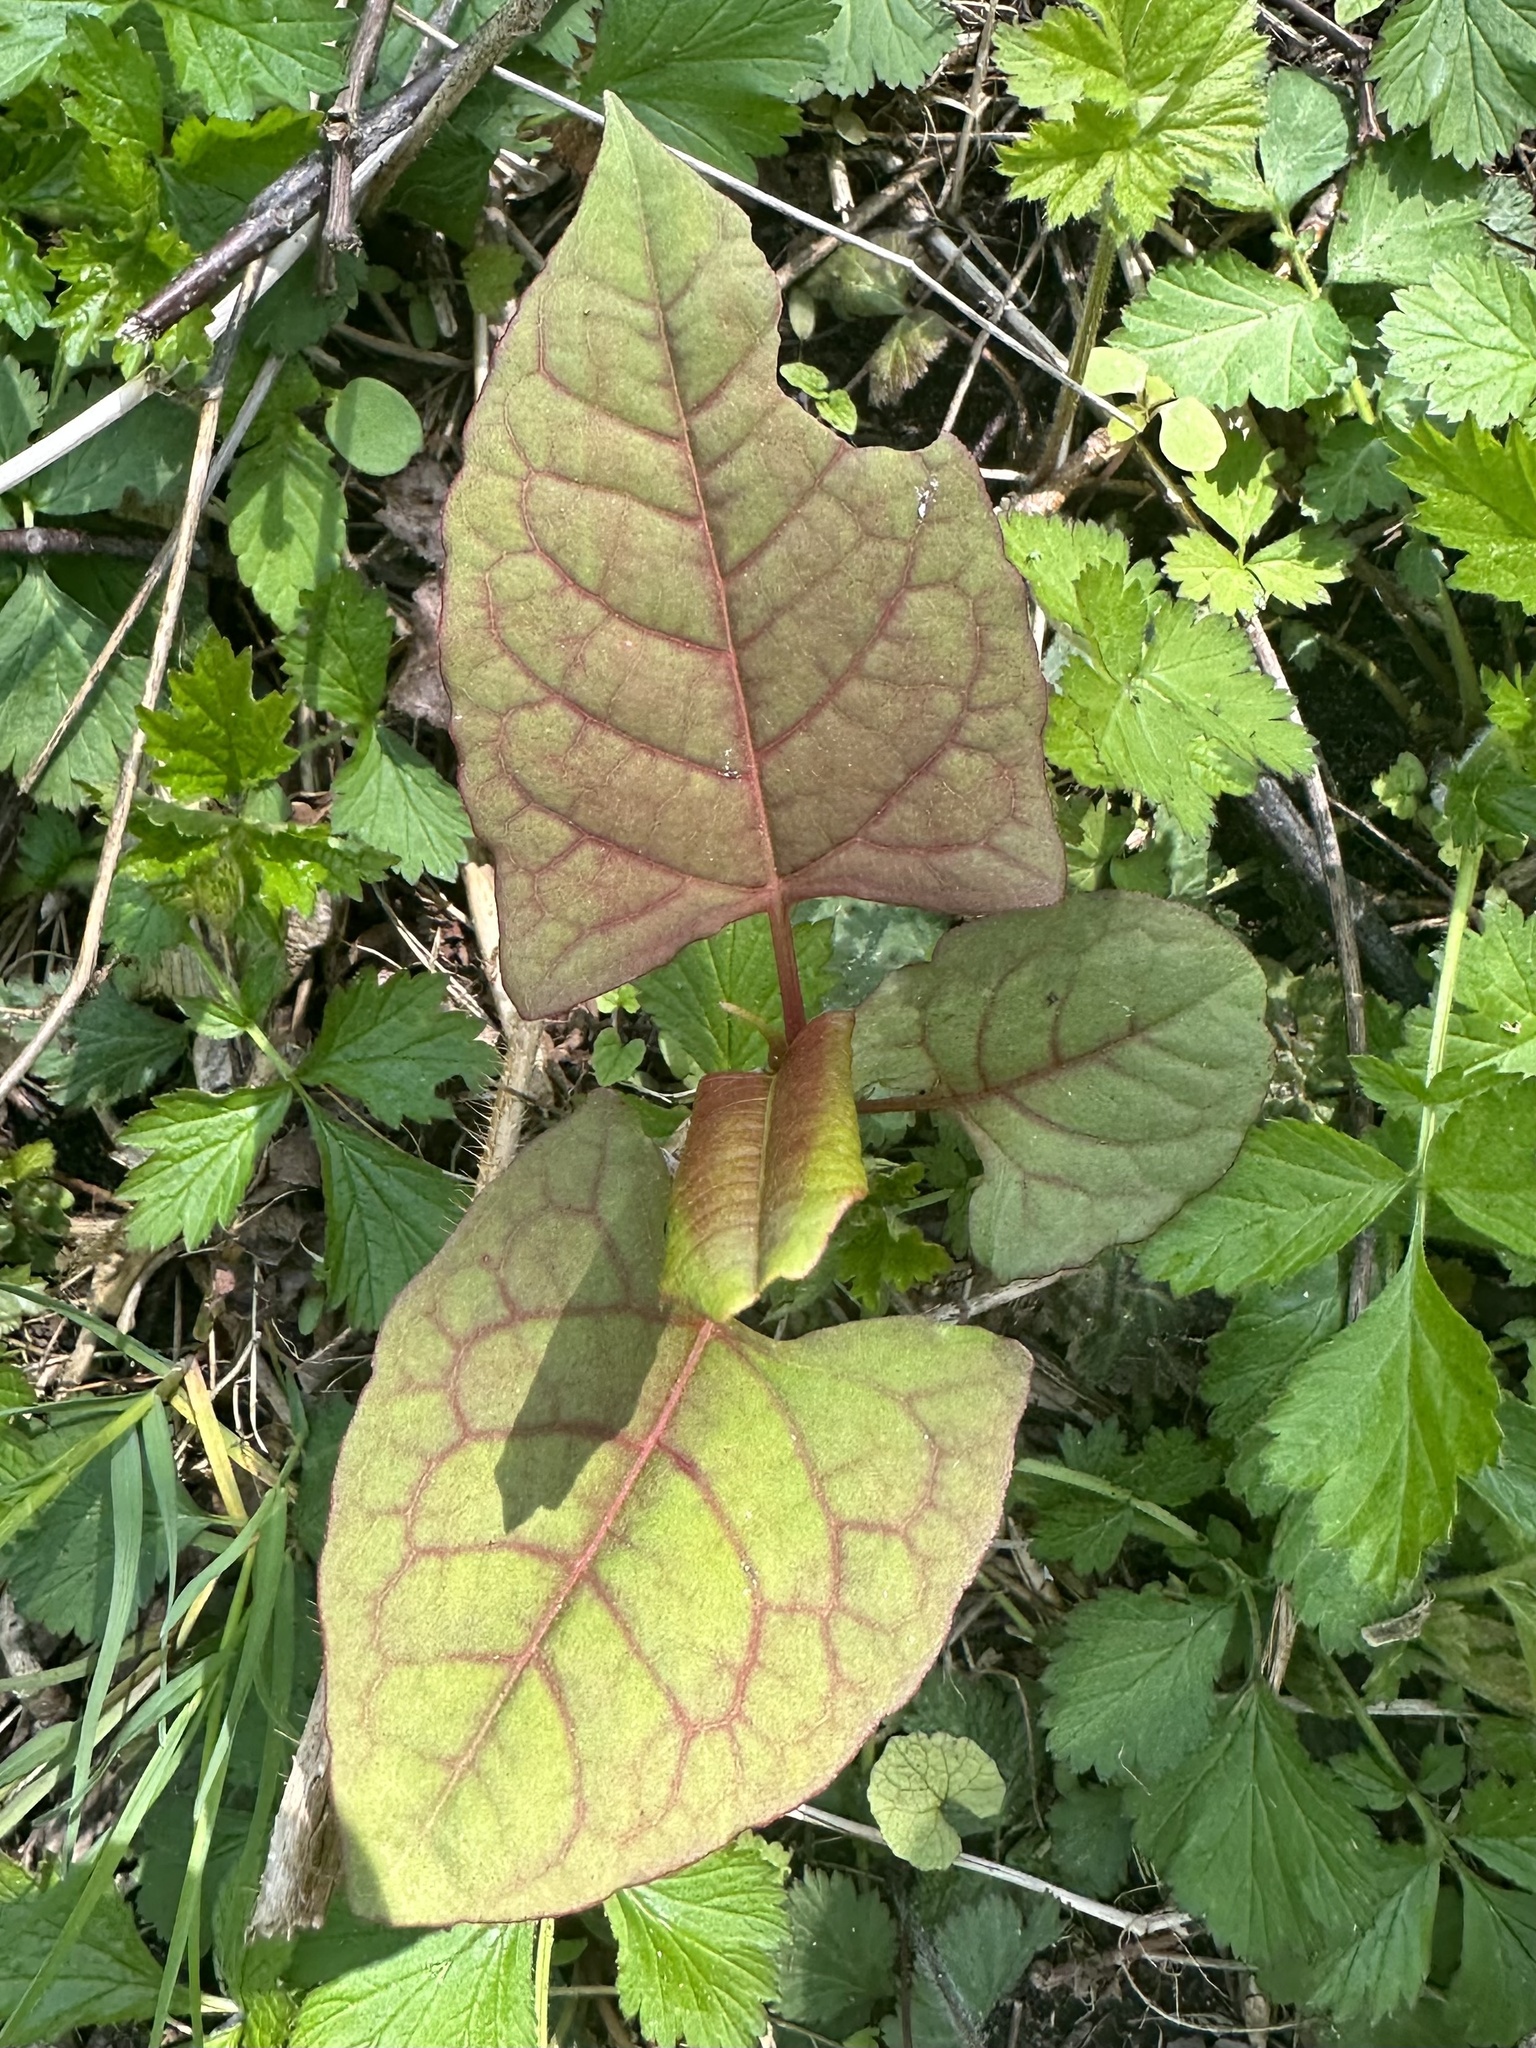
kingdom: Plantae
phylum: Tracheophyta
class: Magnoliopsida
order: Caryophyllales
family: Polygonaceae
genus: Reynoutria
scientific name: Reynoutria japonica
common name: Japanese knotweed
